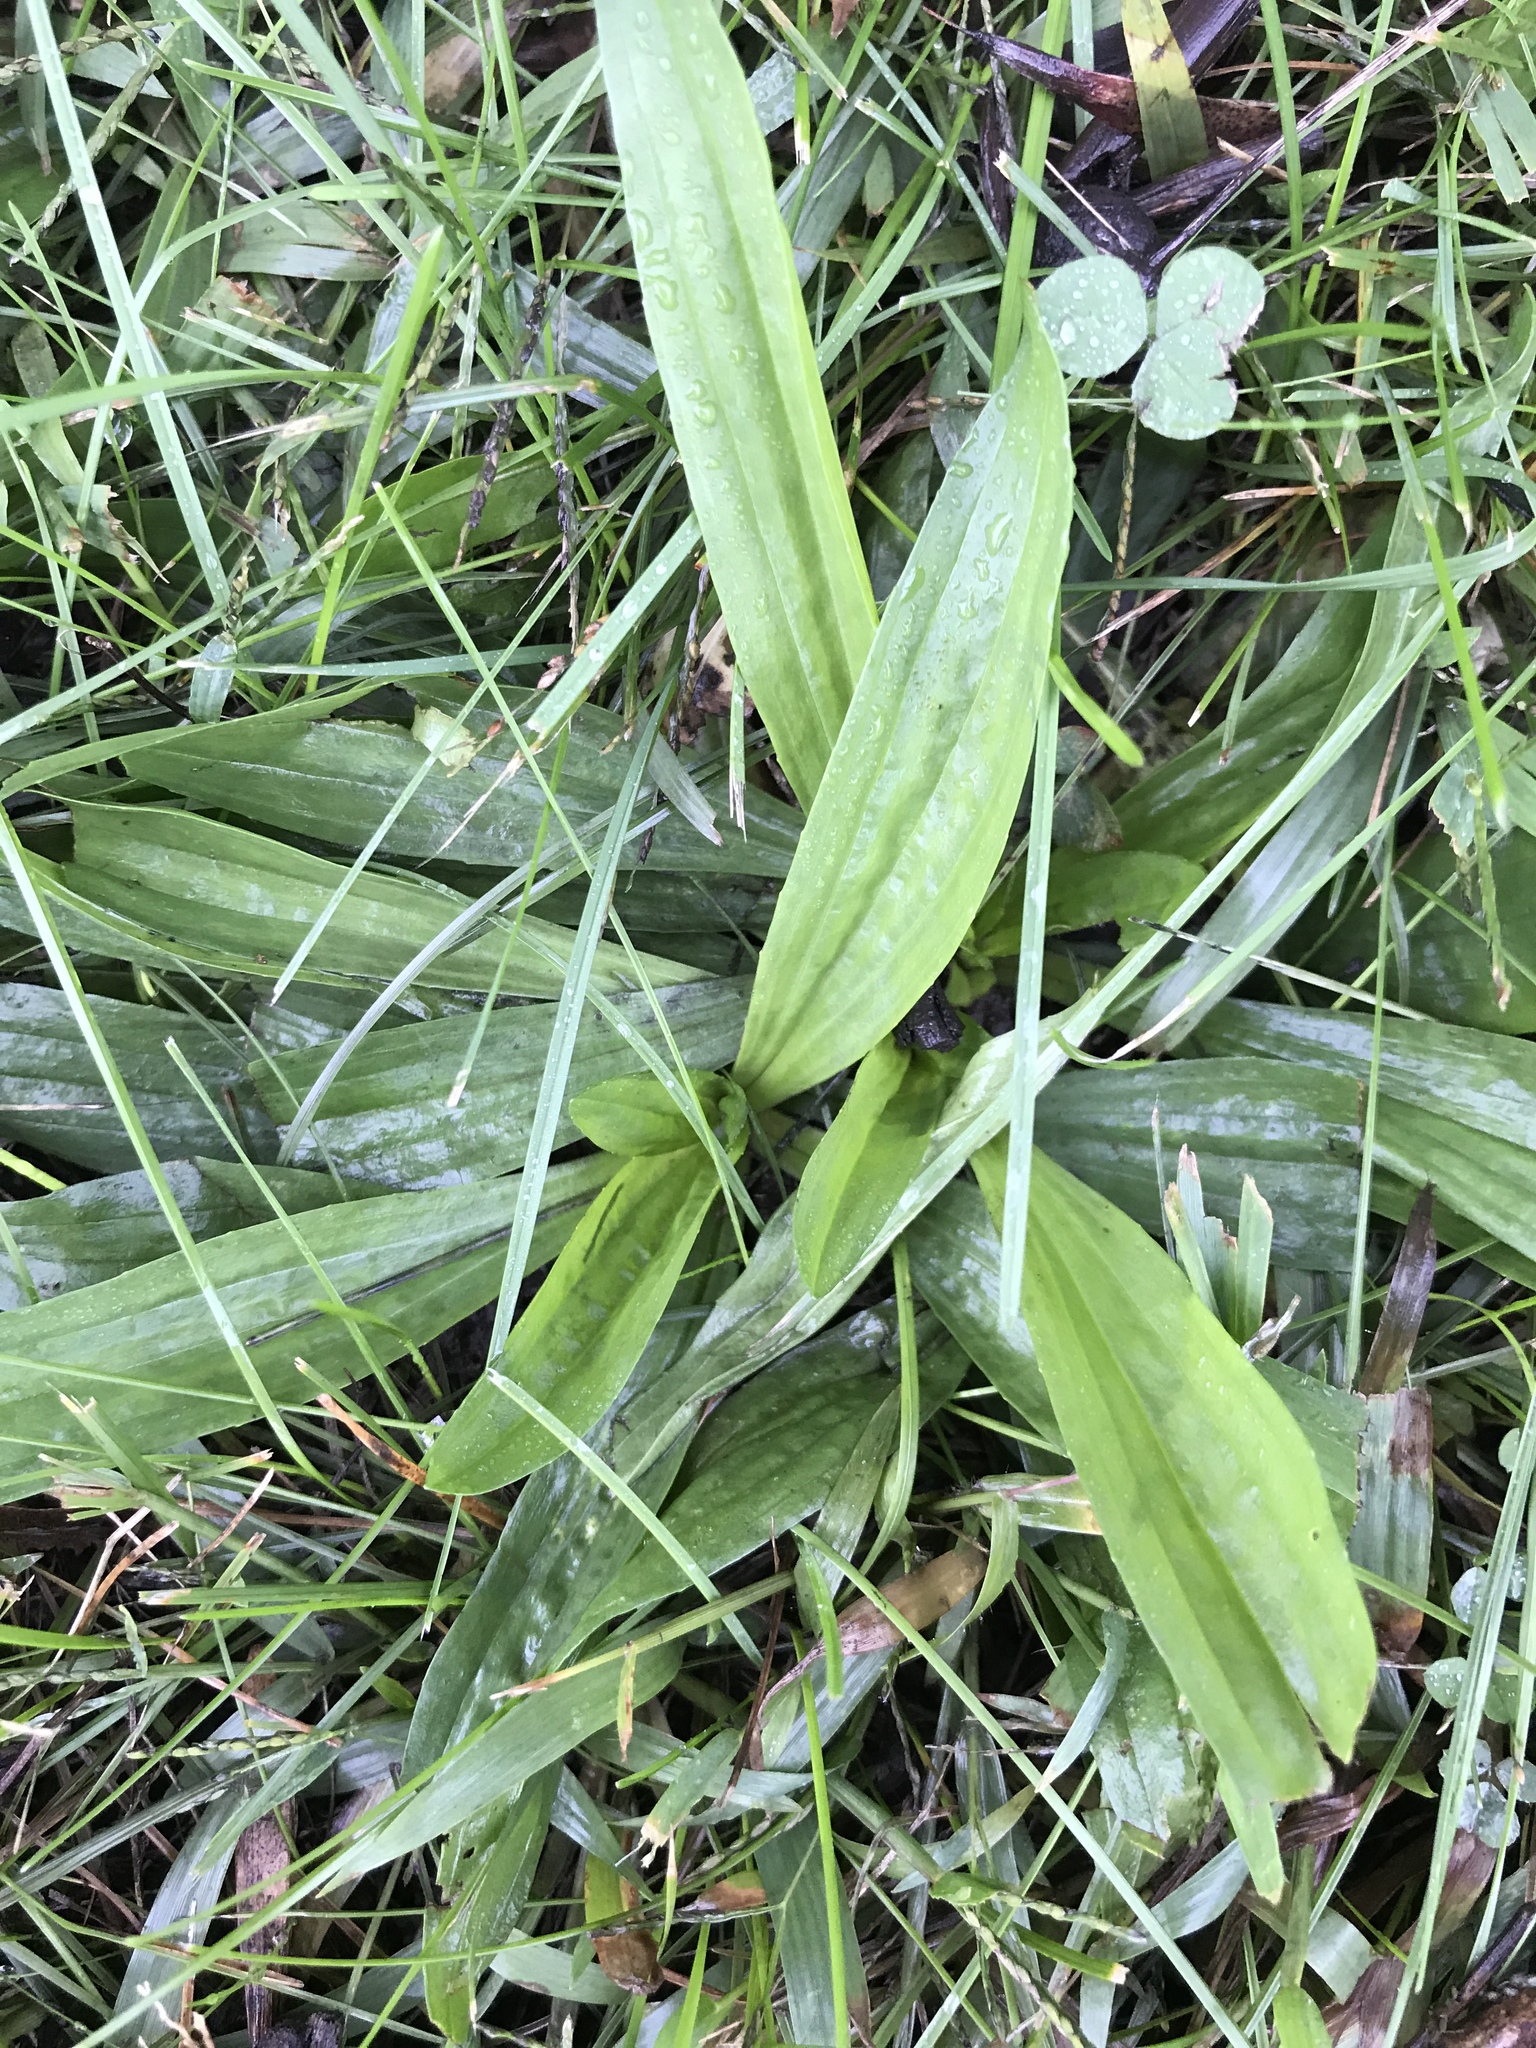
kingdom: Plantae
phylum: Tracheophyta
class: Magnoliopsida
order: Lamiales
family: Plantaginaceae
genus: Plantago
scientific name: Plantago lanceolata
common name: Ribwort plantain
